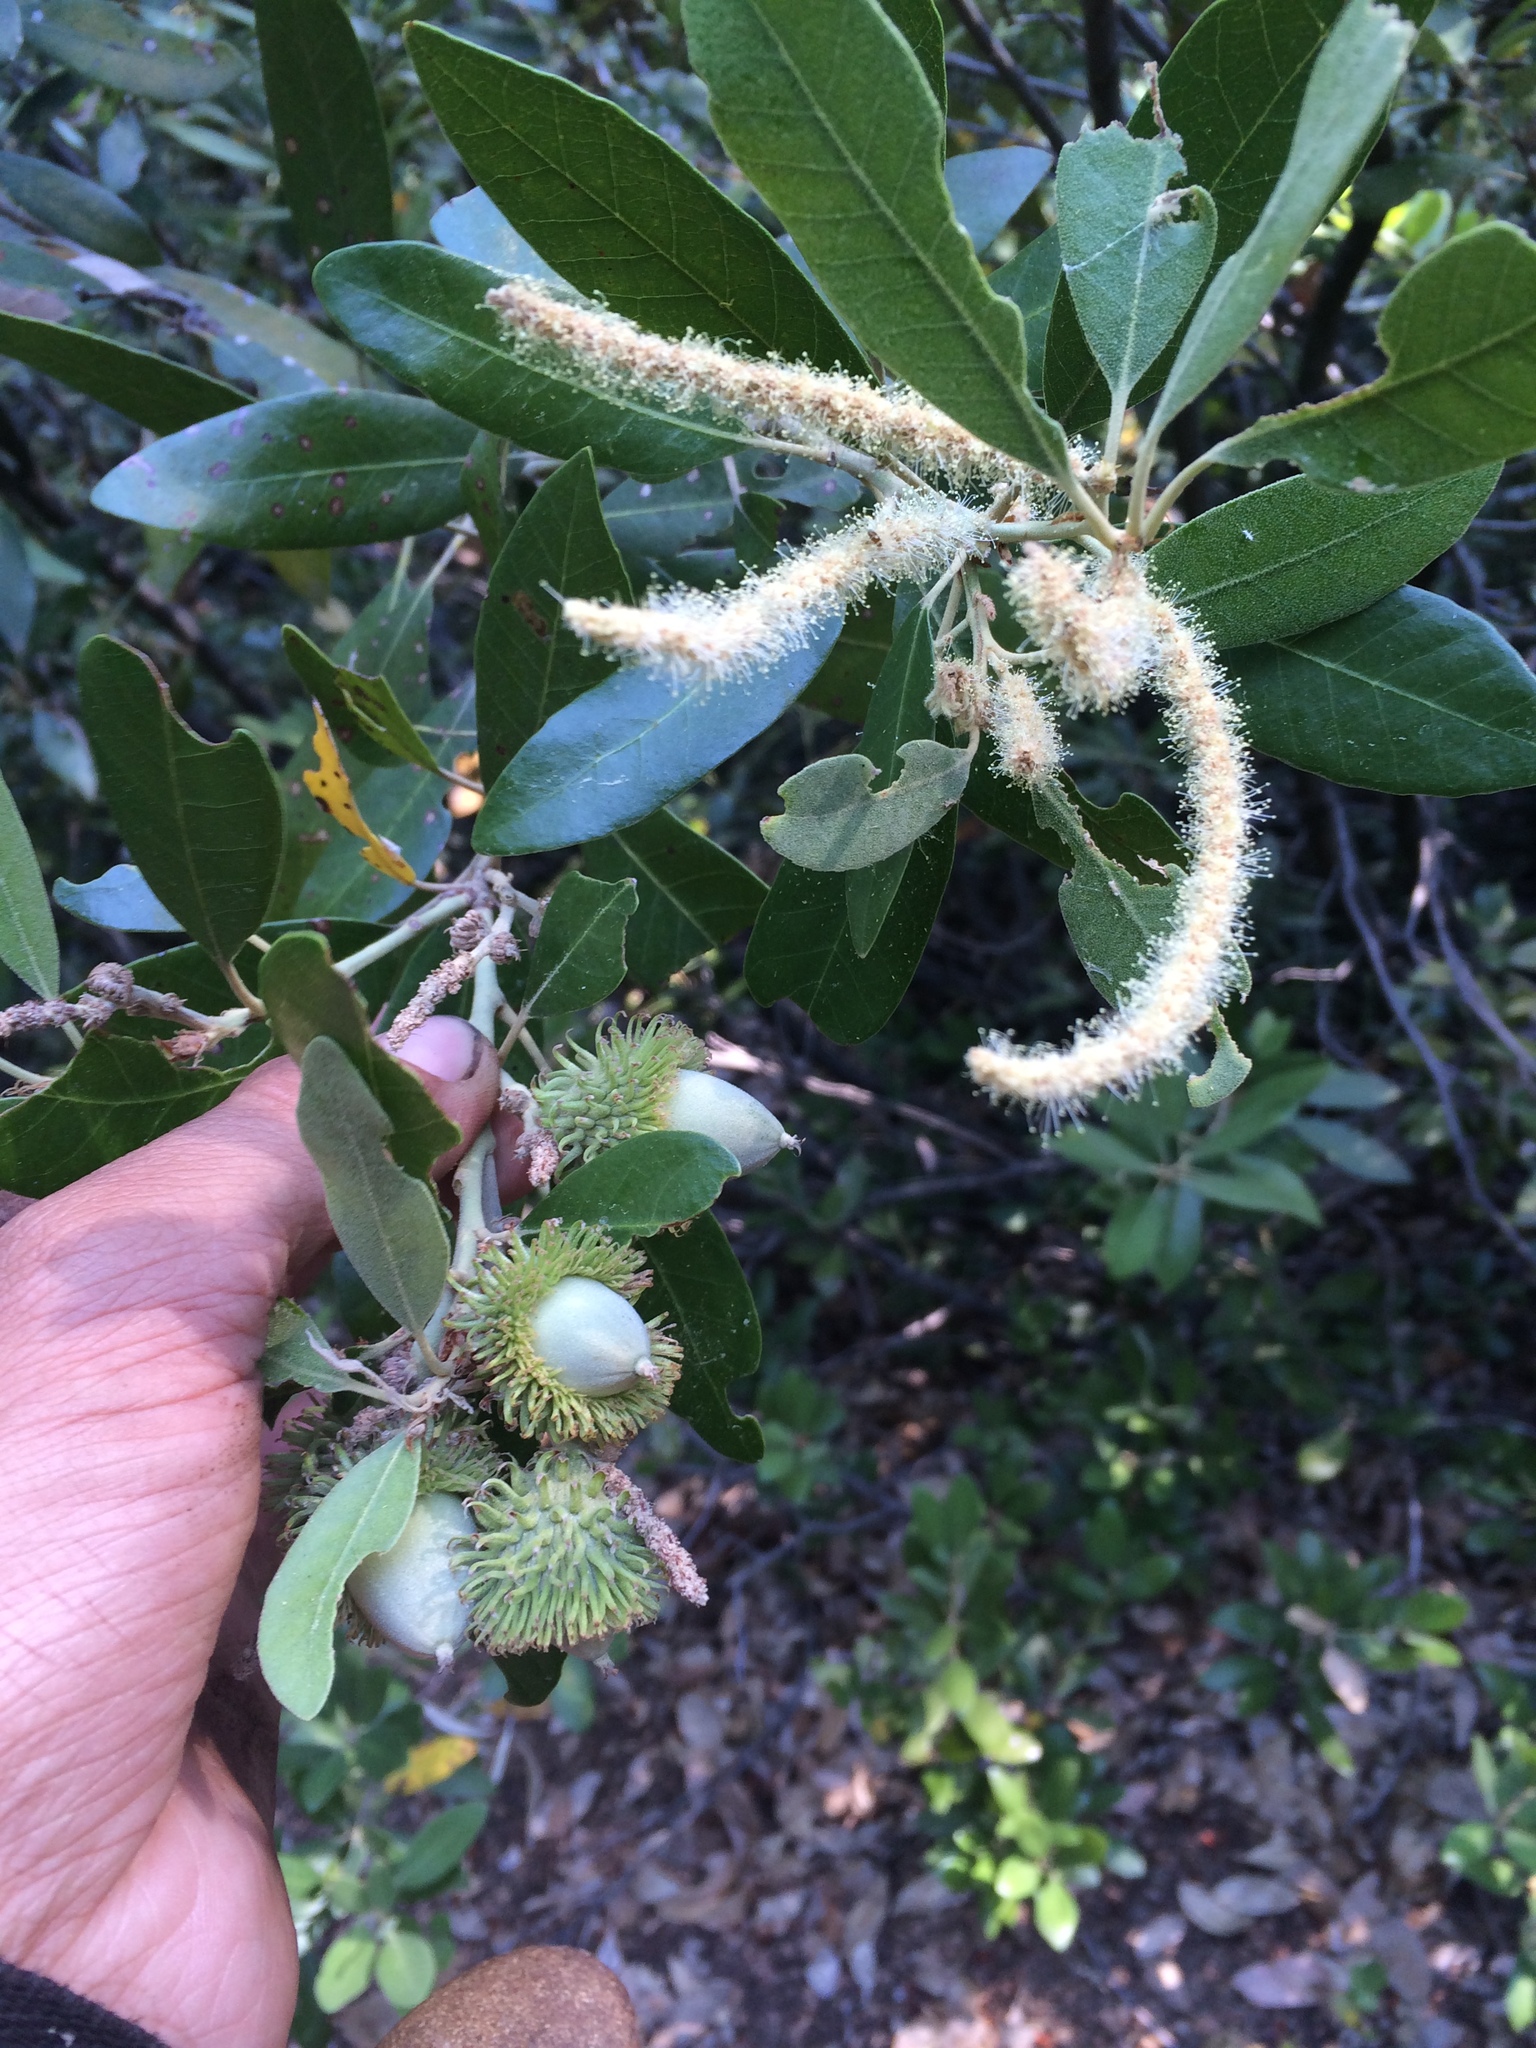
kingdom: Plantae
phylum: Tracheophyta
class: Magnoliopsida
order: Fagales
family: Fagaceae
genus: Notholithocarpus
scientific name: Notholithocarpus densiflorus
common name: Tan bark oak
